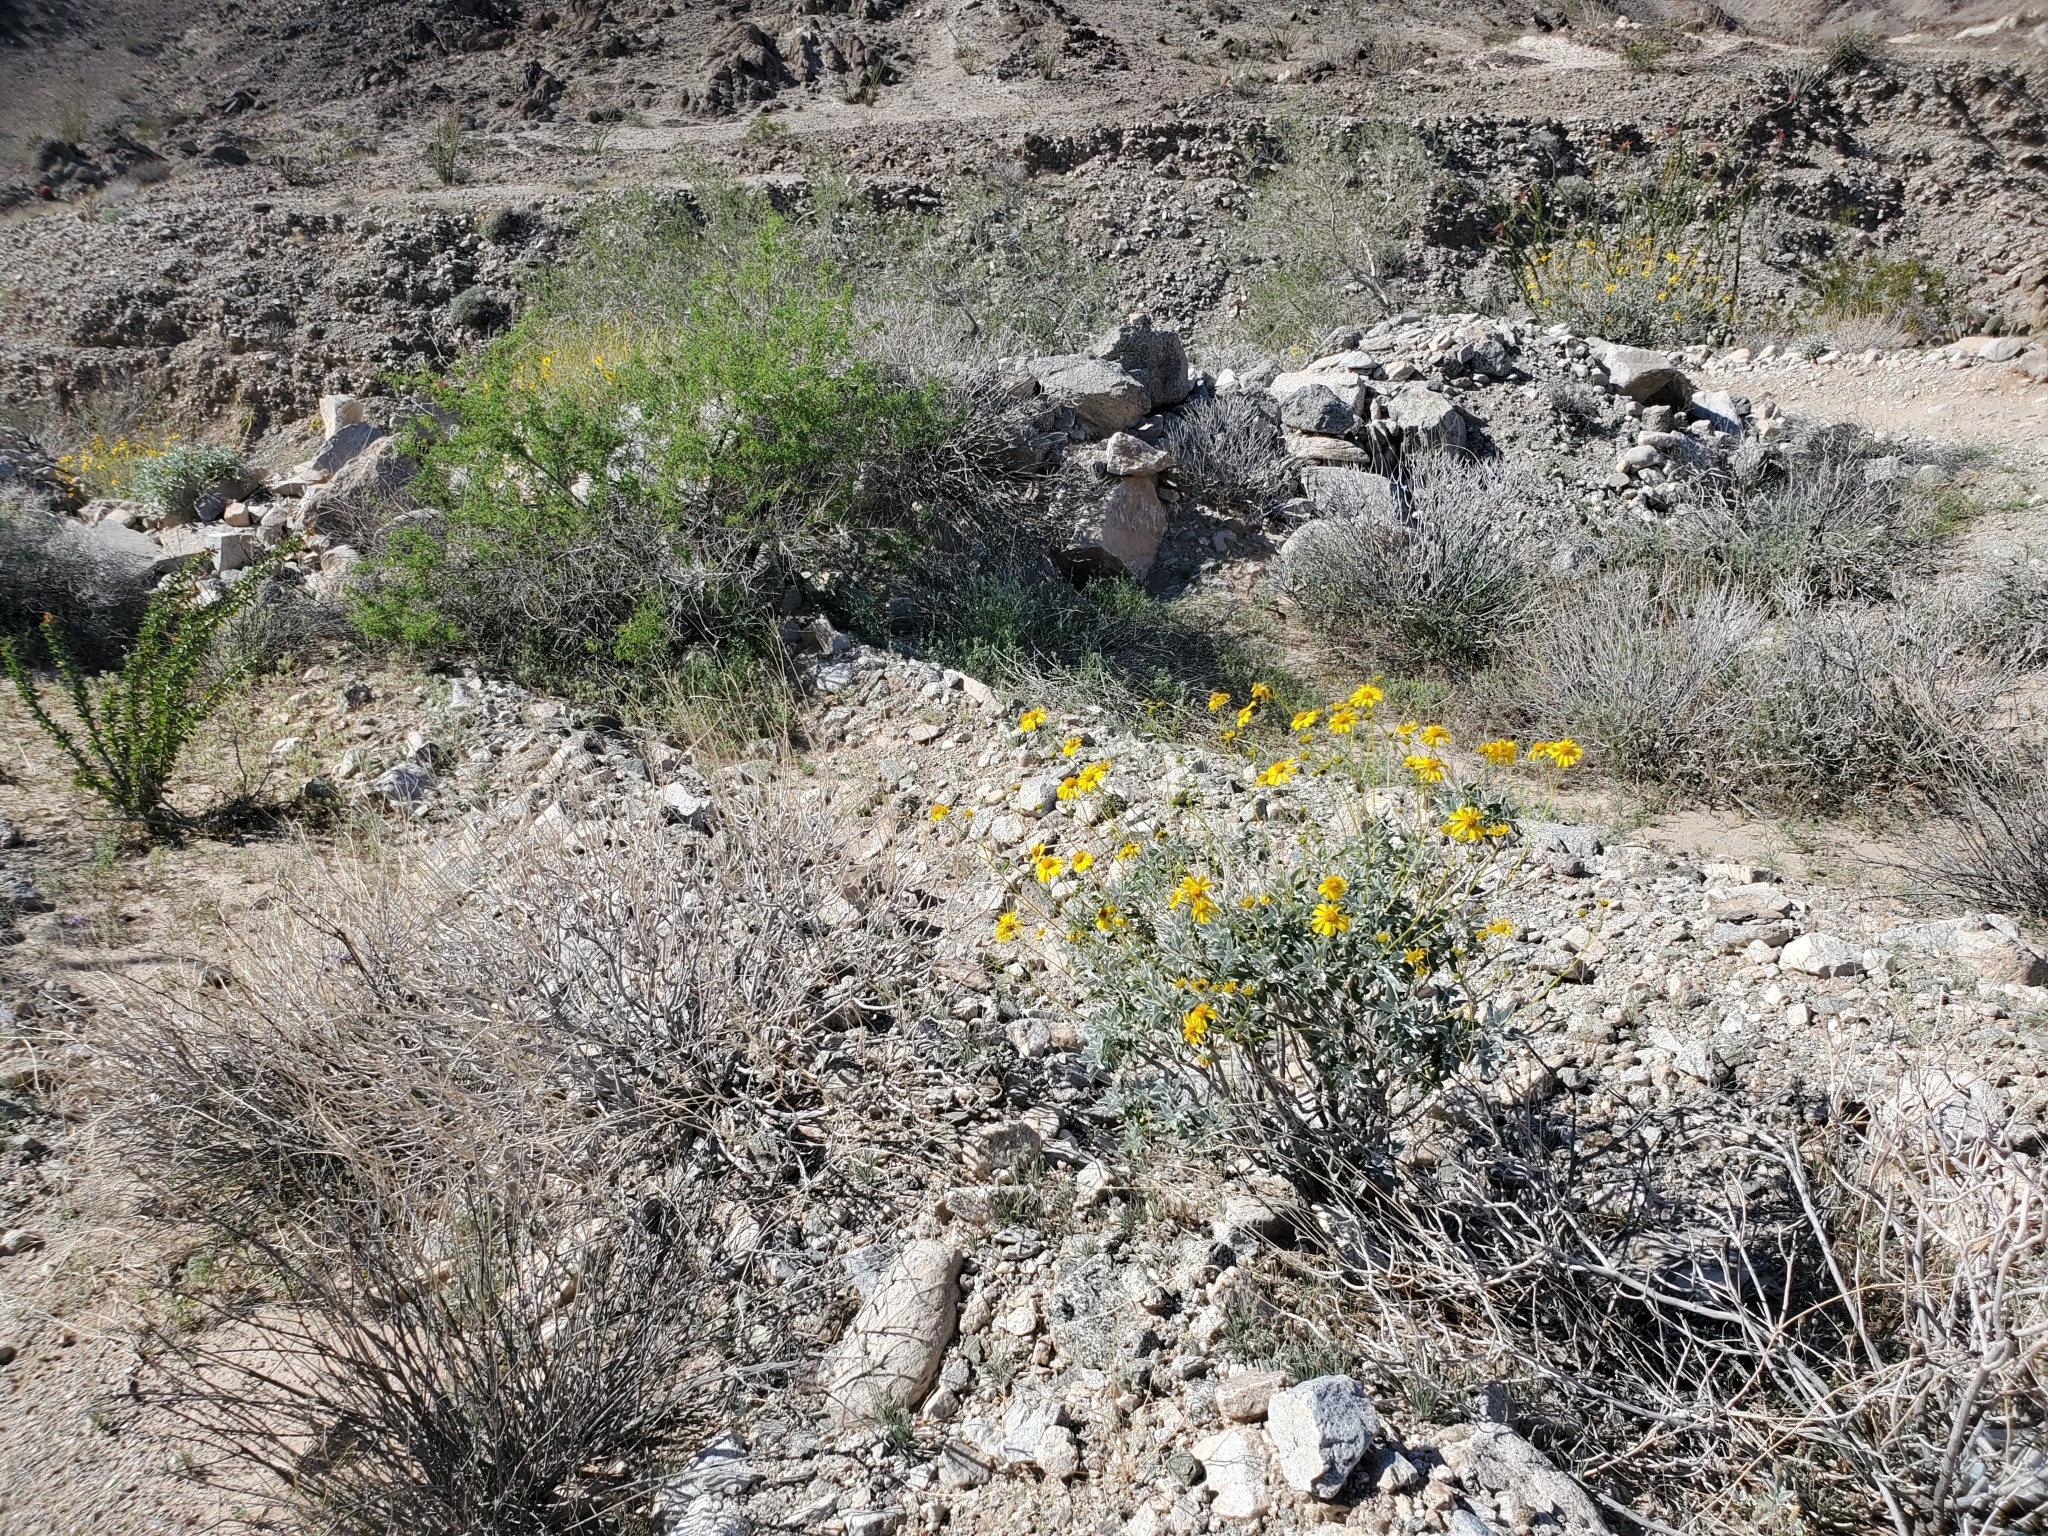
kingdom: Plantae
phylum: Tracheophyta
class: Magnoliopsida
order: Asterales
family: Asteraceae
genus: Encelia
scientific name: Encelia farinosa
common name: Brittlebush
